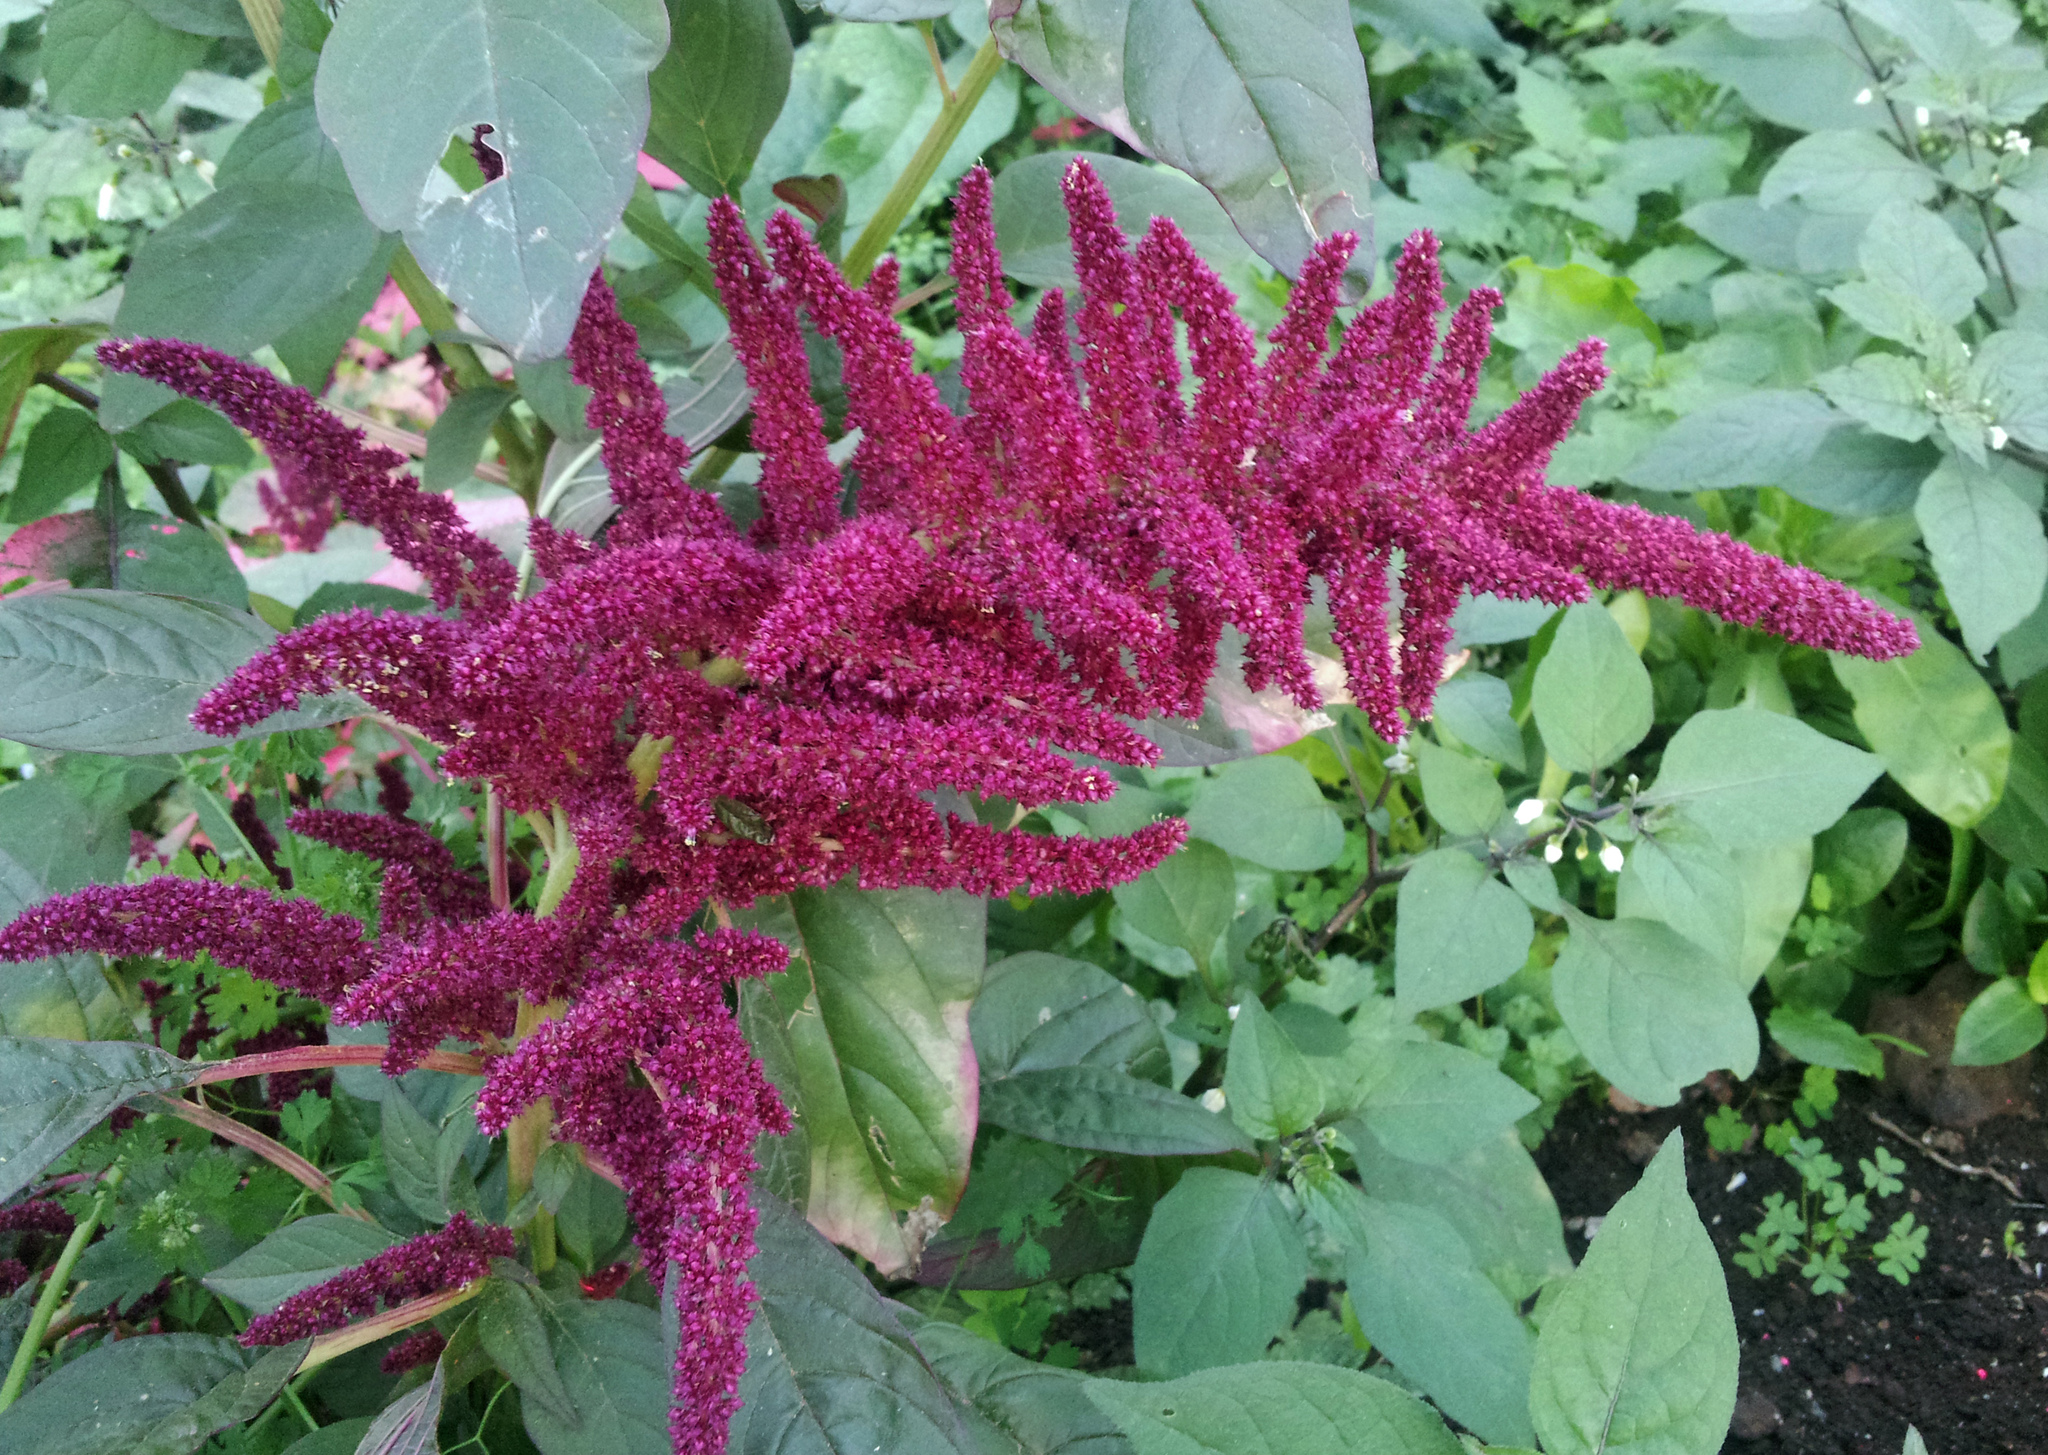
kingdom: Plantae
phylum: Tracheophyta
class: Magnoliopsida
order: Caryophyllales
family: Amaranthaceae
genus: Amaranthus
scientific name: Amaranthus cruentus
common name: Purple amaranth
